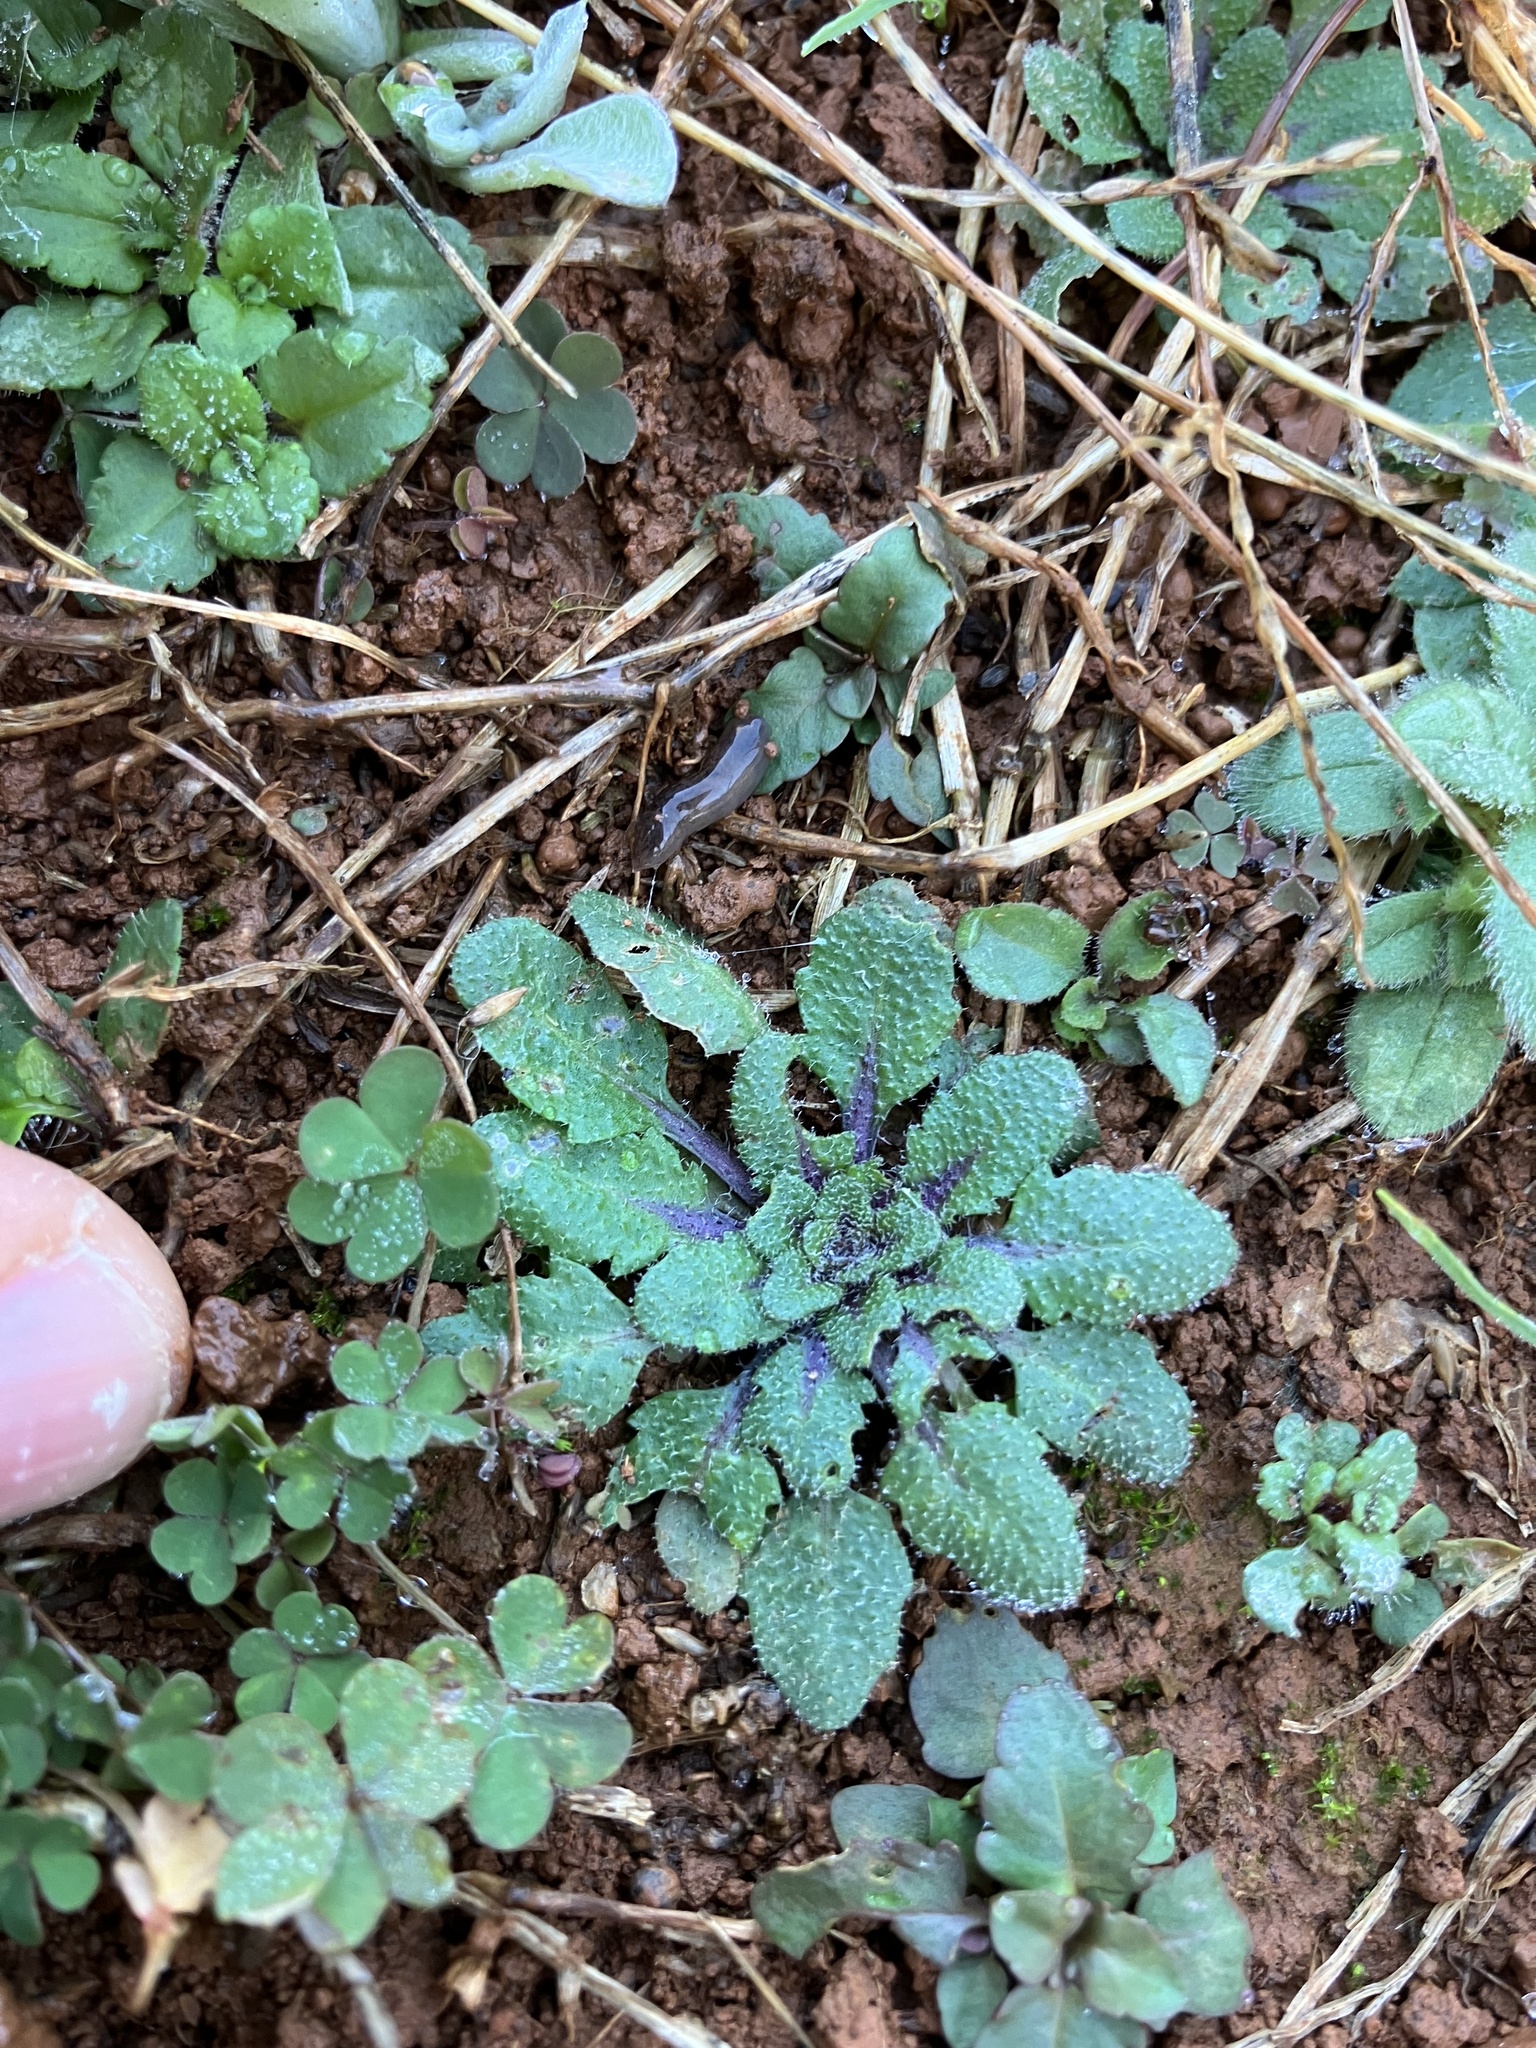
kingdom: Plantae
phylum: Tracheophyta
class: Magnoliopsida
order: Brassicales
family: Brassicaceae
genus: Arabidopsis
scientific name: Arabidopsis thaliana
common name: Thale cress
